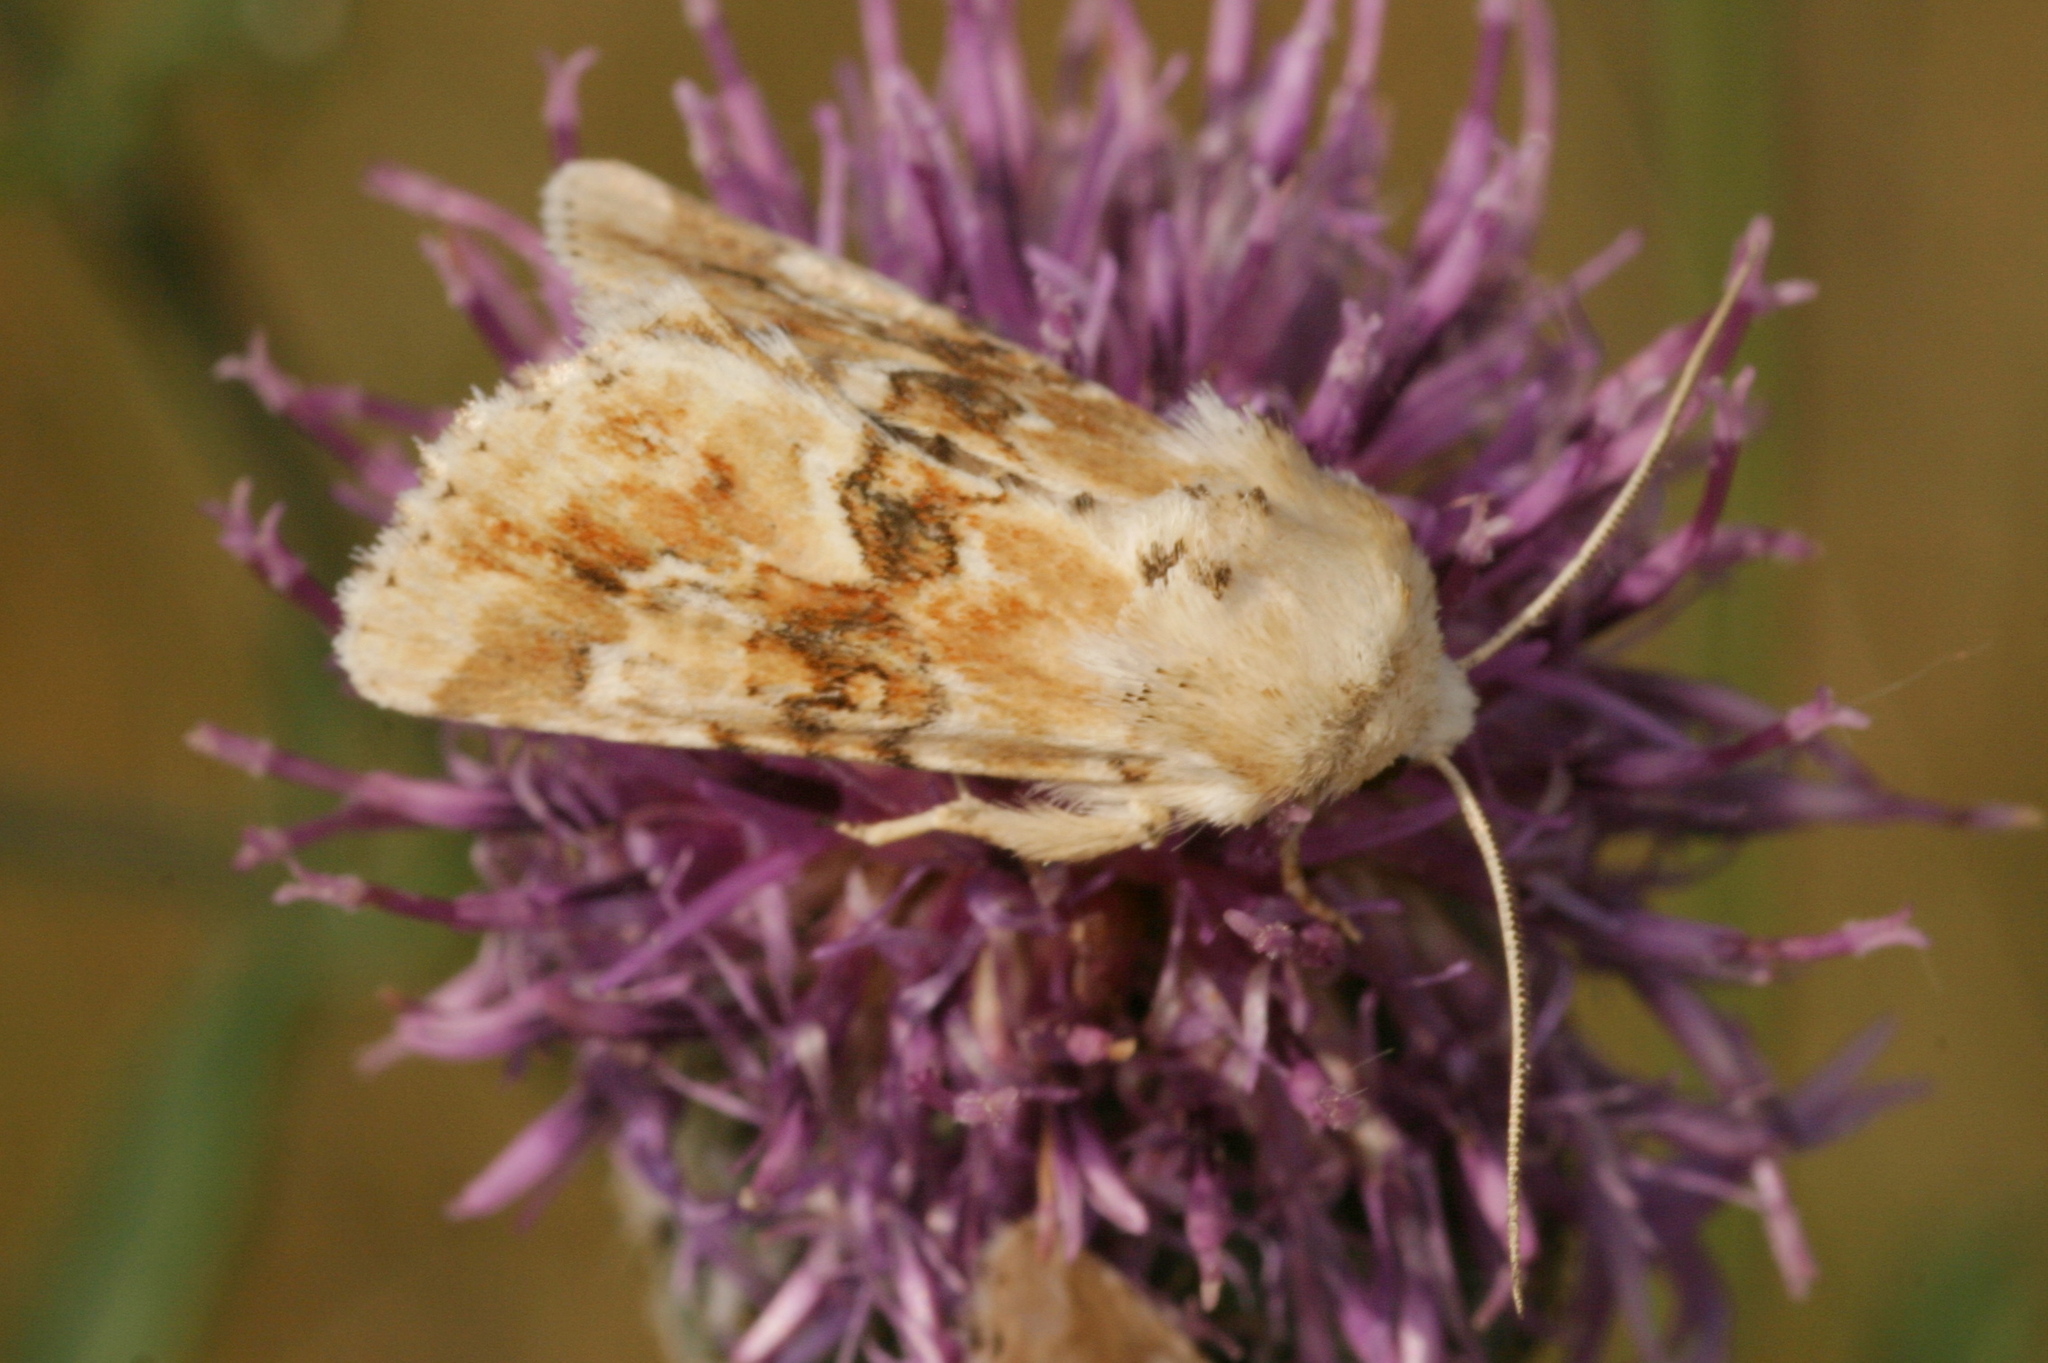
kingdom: Animalia
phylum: Arthropoda
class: Insecta
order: Lepidoptera
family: Noctuidae
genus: Eremobia
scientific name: Eremobia ochroleuca
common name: Dusky sallow
